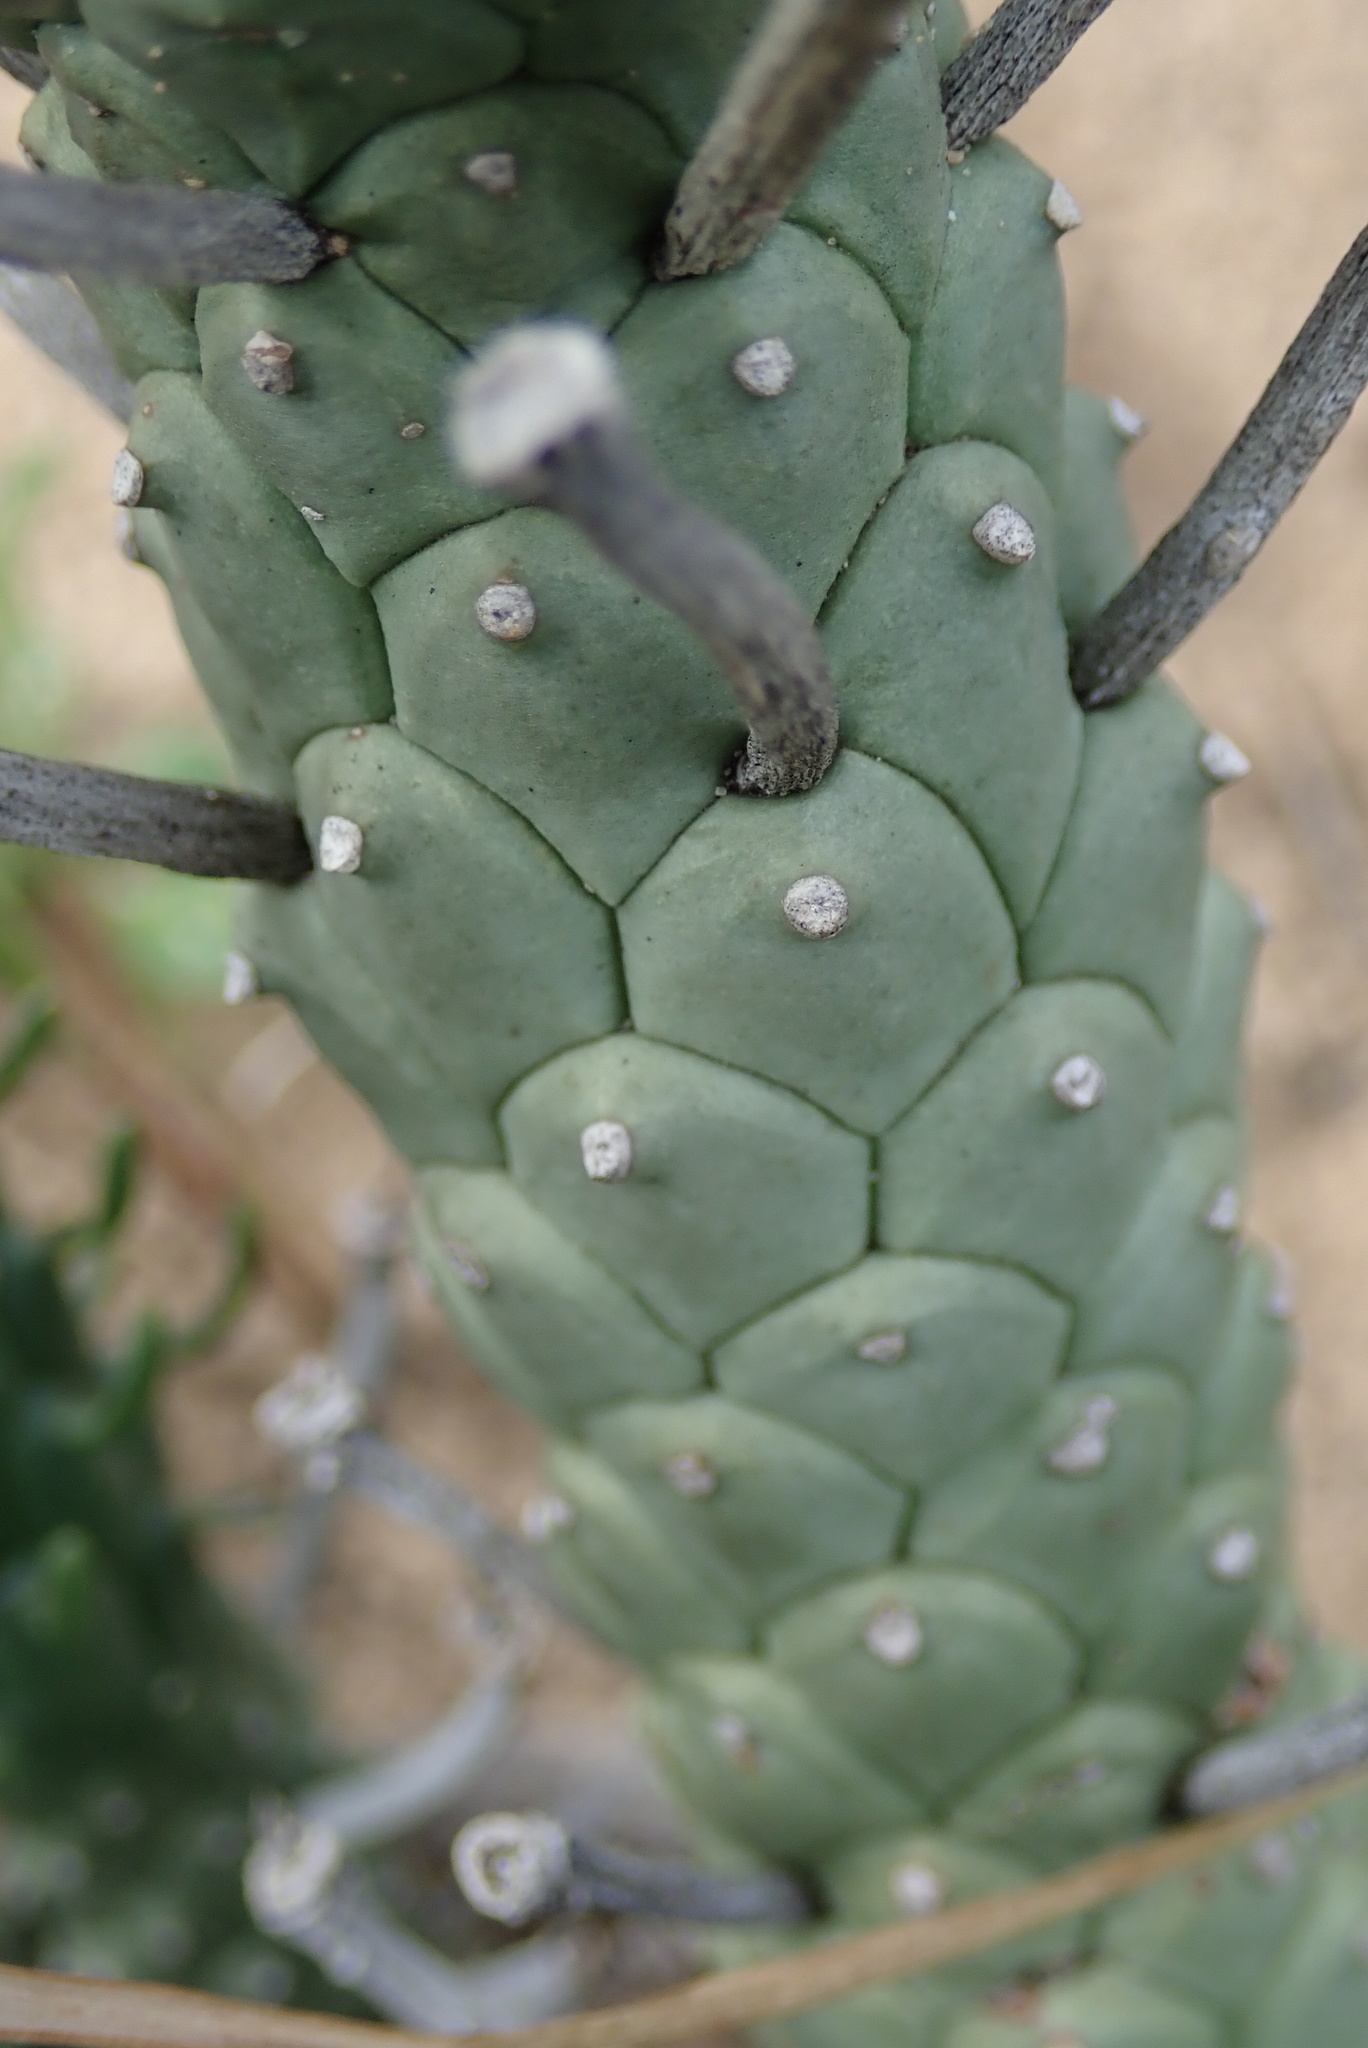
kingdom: Plantae
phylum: Tracheophyta
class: Magnoliopsida
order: Malpighiales
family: Euphorbiaceae
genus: Euphorbia
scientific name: Euphorbia caput-medusae
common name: Medusa's-head
